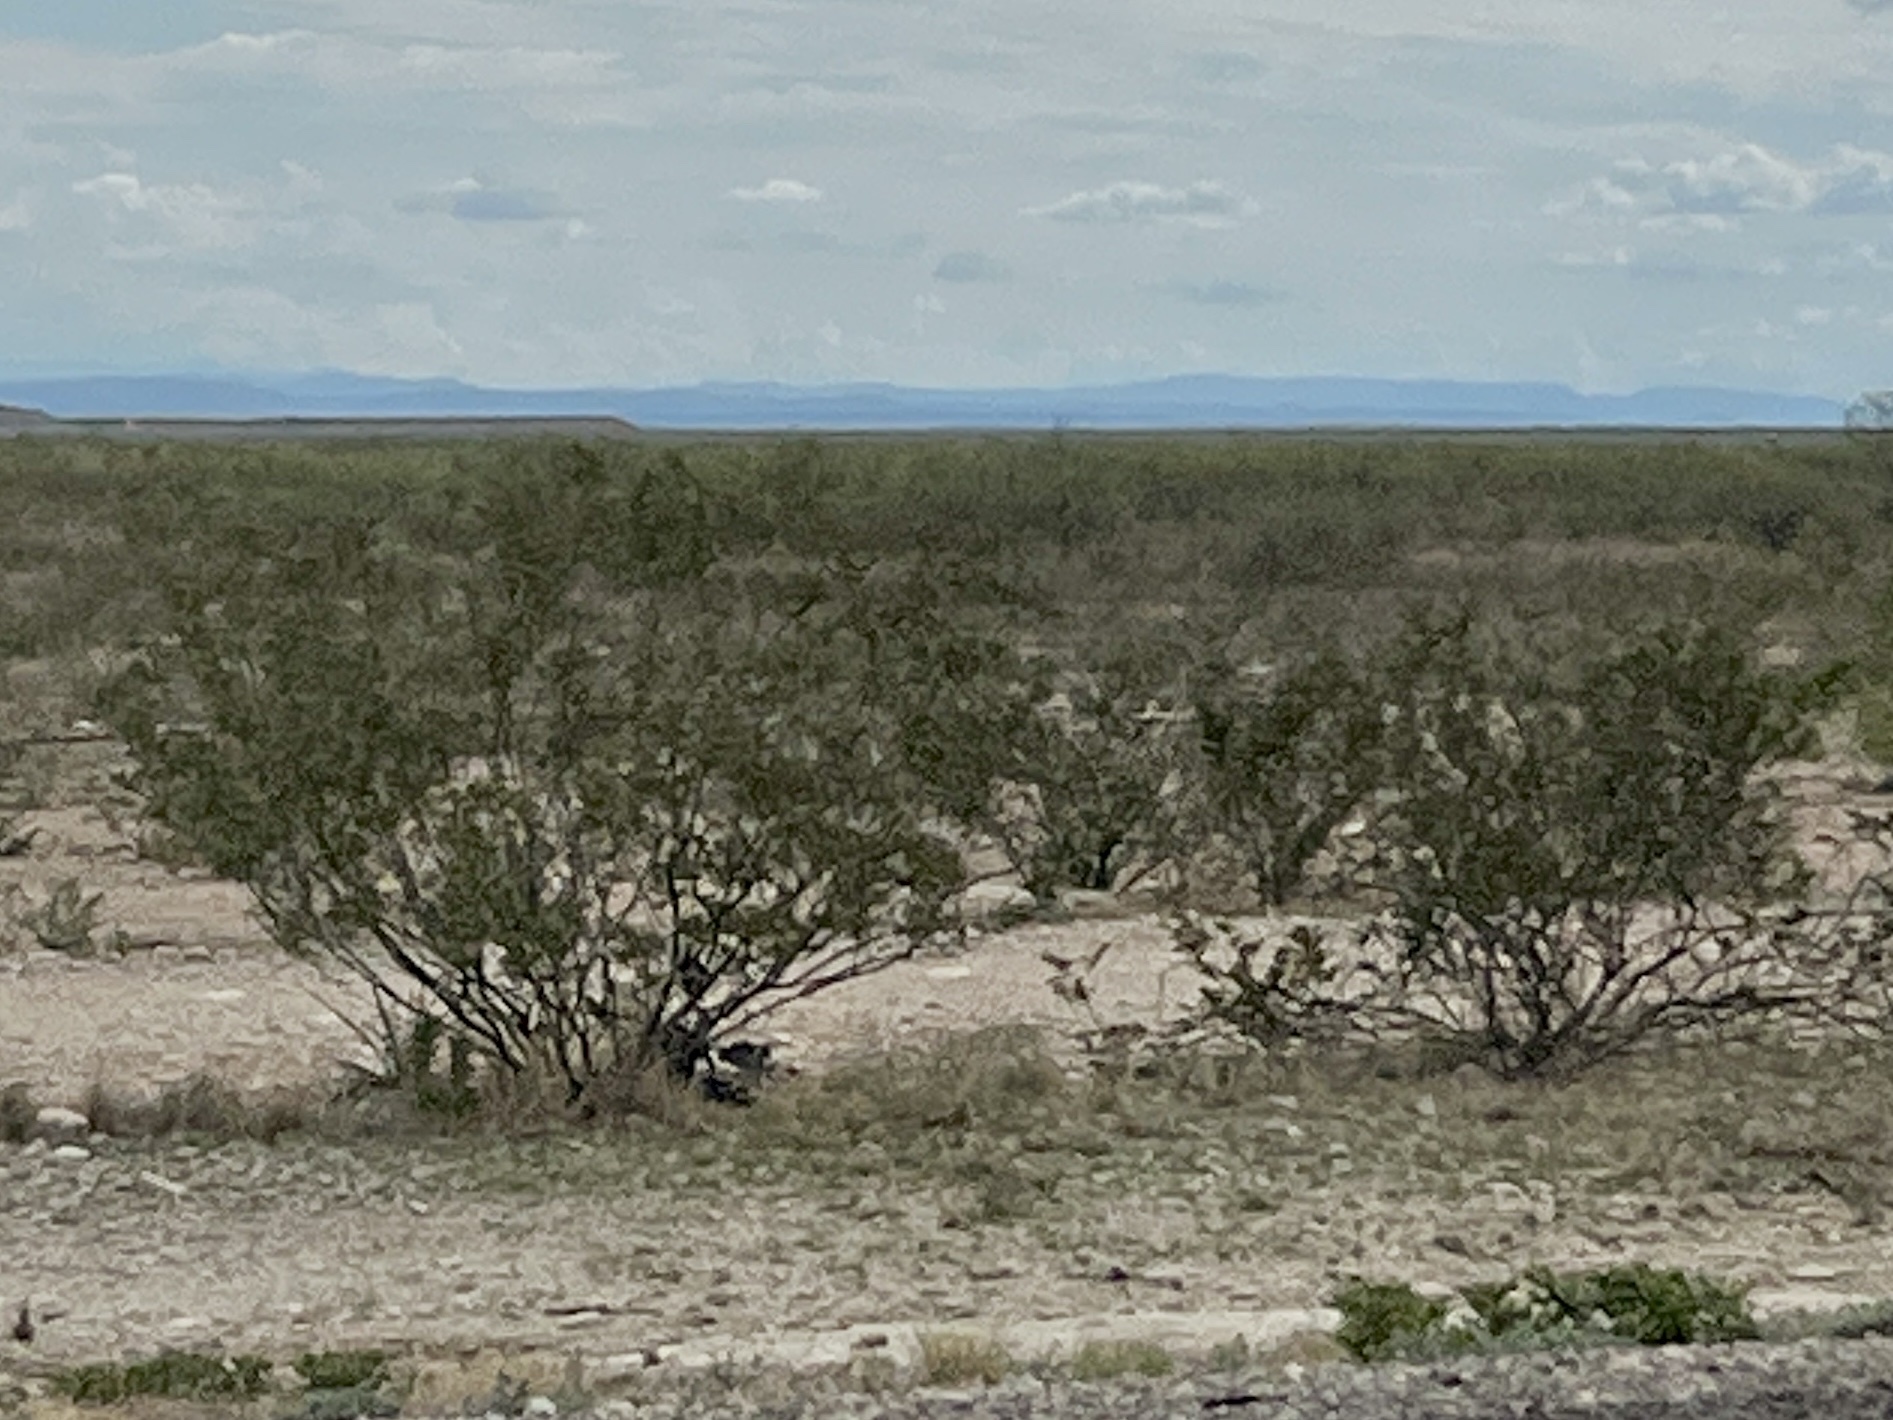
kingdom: Plantae
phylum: Tracheophyta
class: Magnoliopsida
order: Zygophyllales
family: Zygophyllaceae
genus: Larrea
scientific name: Larrea tridentata
